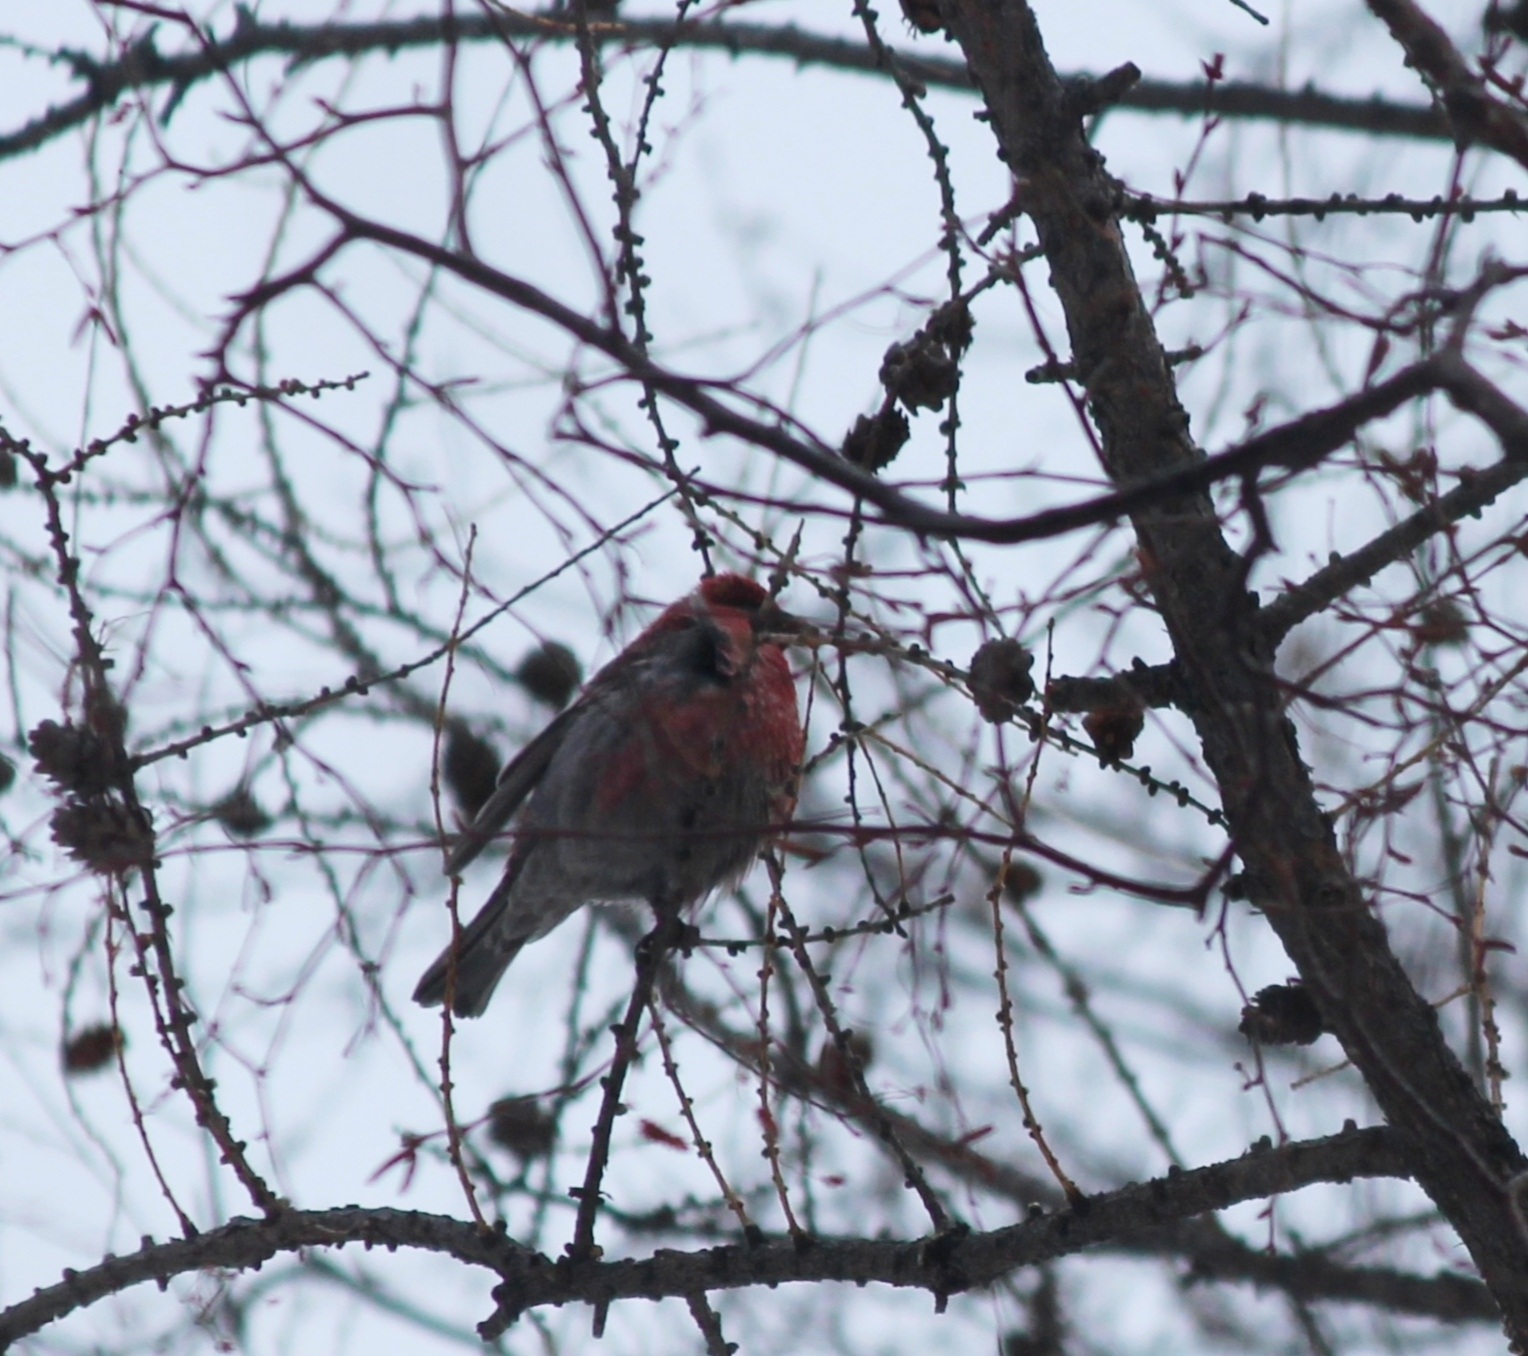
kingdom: Animalia
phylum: Chordata
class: Aves
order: Passeriformes
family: Fringillidae
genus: Pinicola
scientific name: Pinicola enucleator
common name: Pine grosbeak
